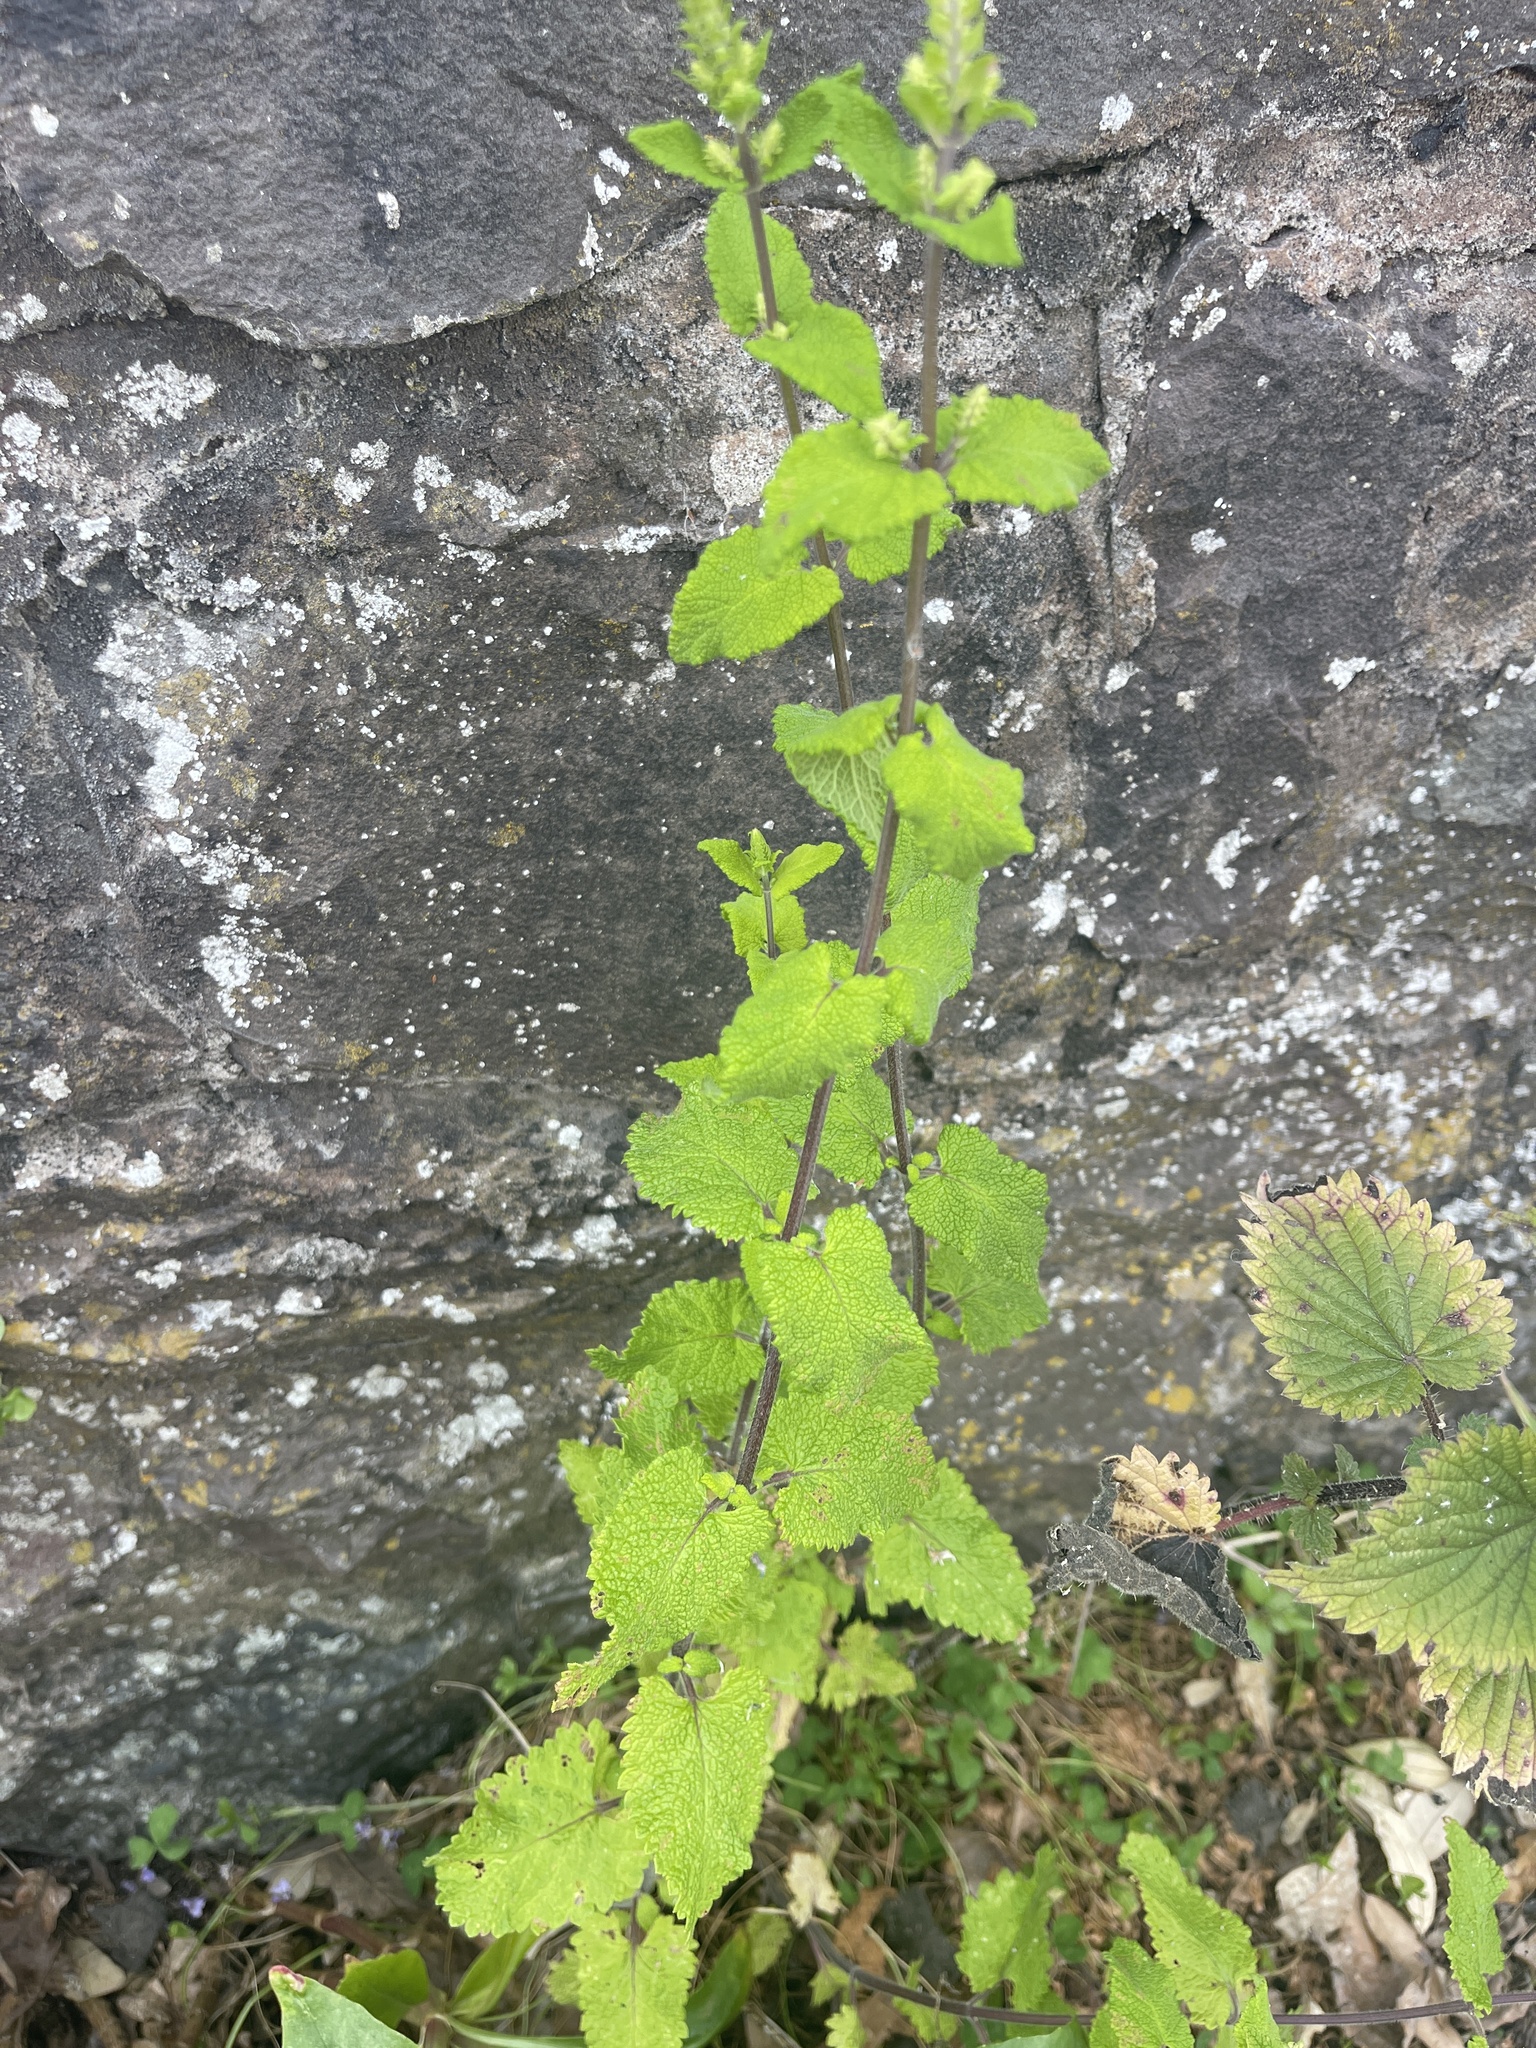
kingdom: Plantae
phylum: Tracheophyta
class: Magnoliopsida
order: Lamiales
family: Lamiaceae
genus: Teucrium
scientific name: Teucrium scorodonia
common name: Woodland germander
